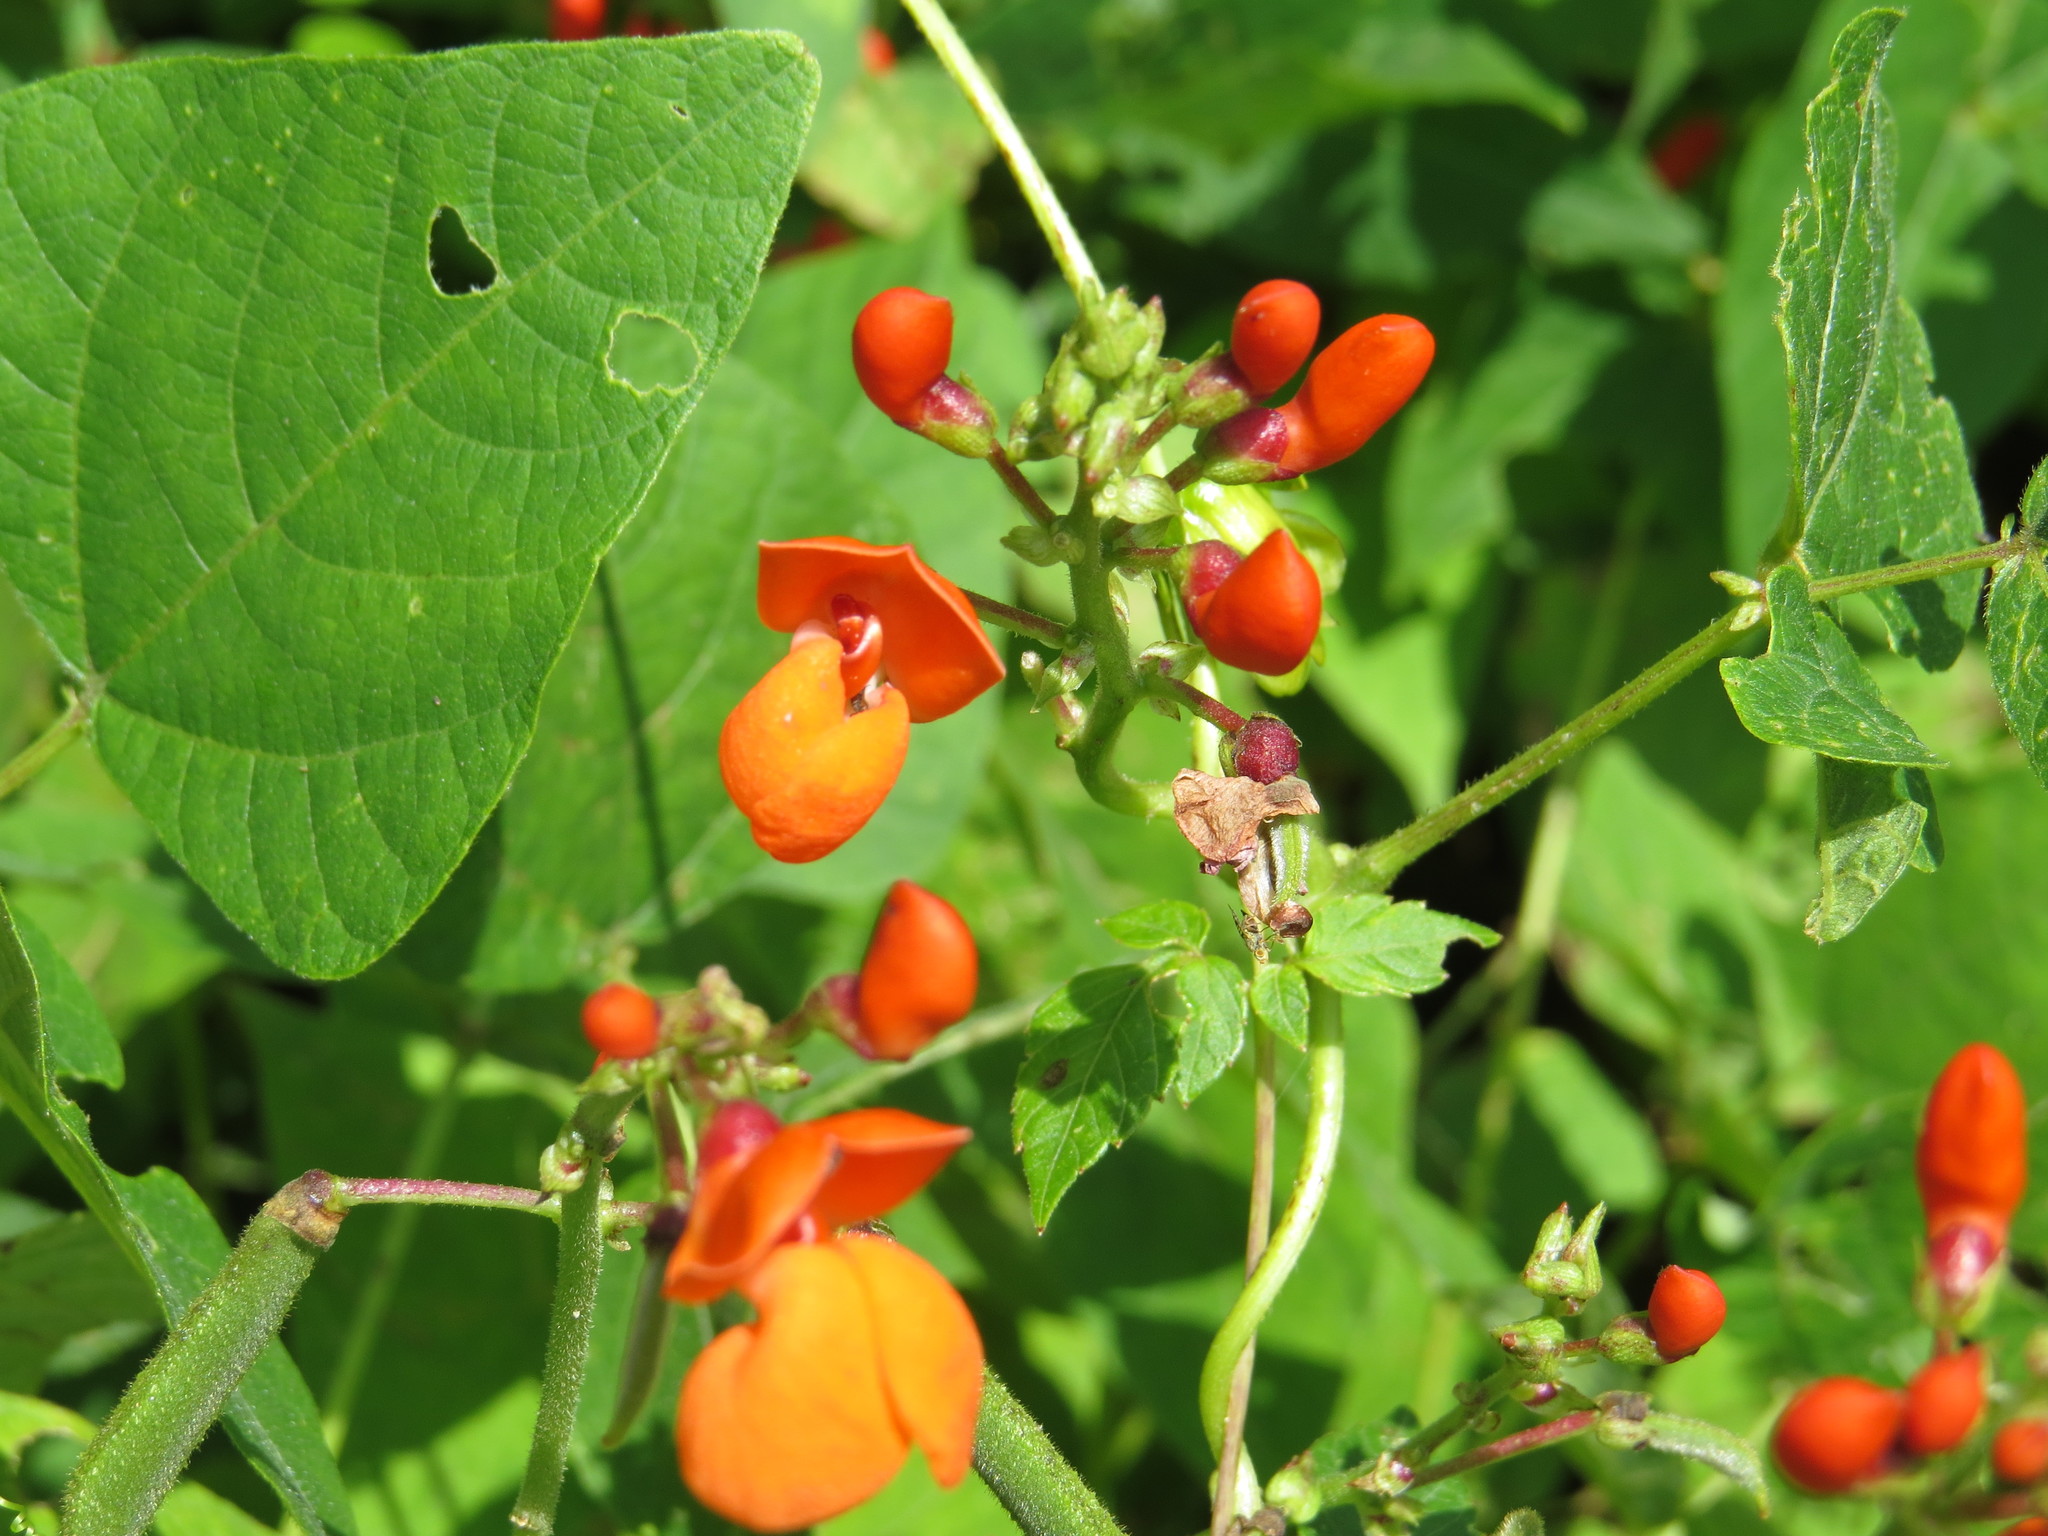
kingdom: Plantae
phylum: Tracheophyta
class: Magnoliopsida
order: Fabales
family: Fabaceae
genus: Phaseolus
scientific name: Phaseolus coccineus
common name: Runner bean
